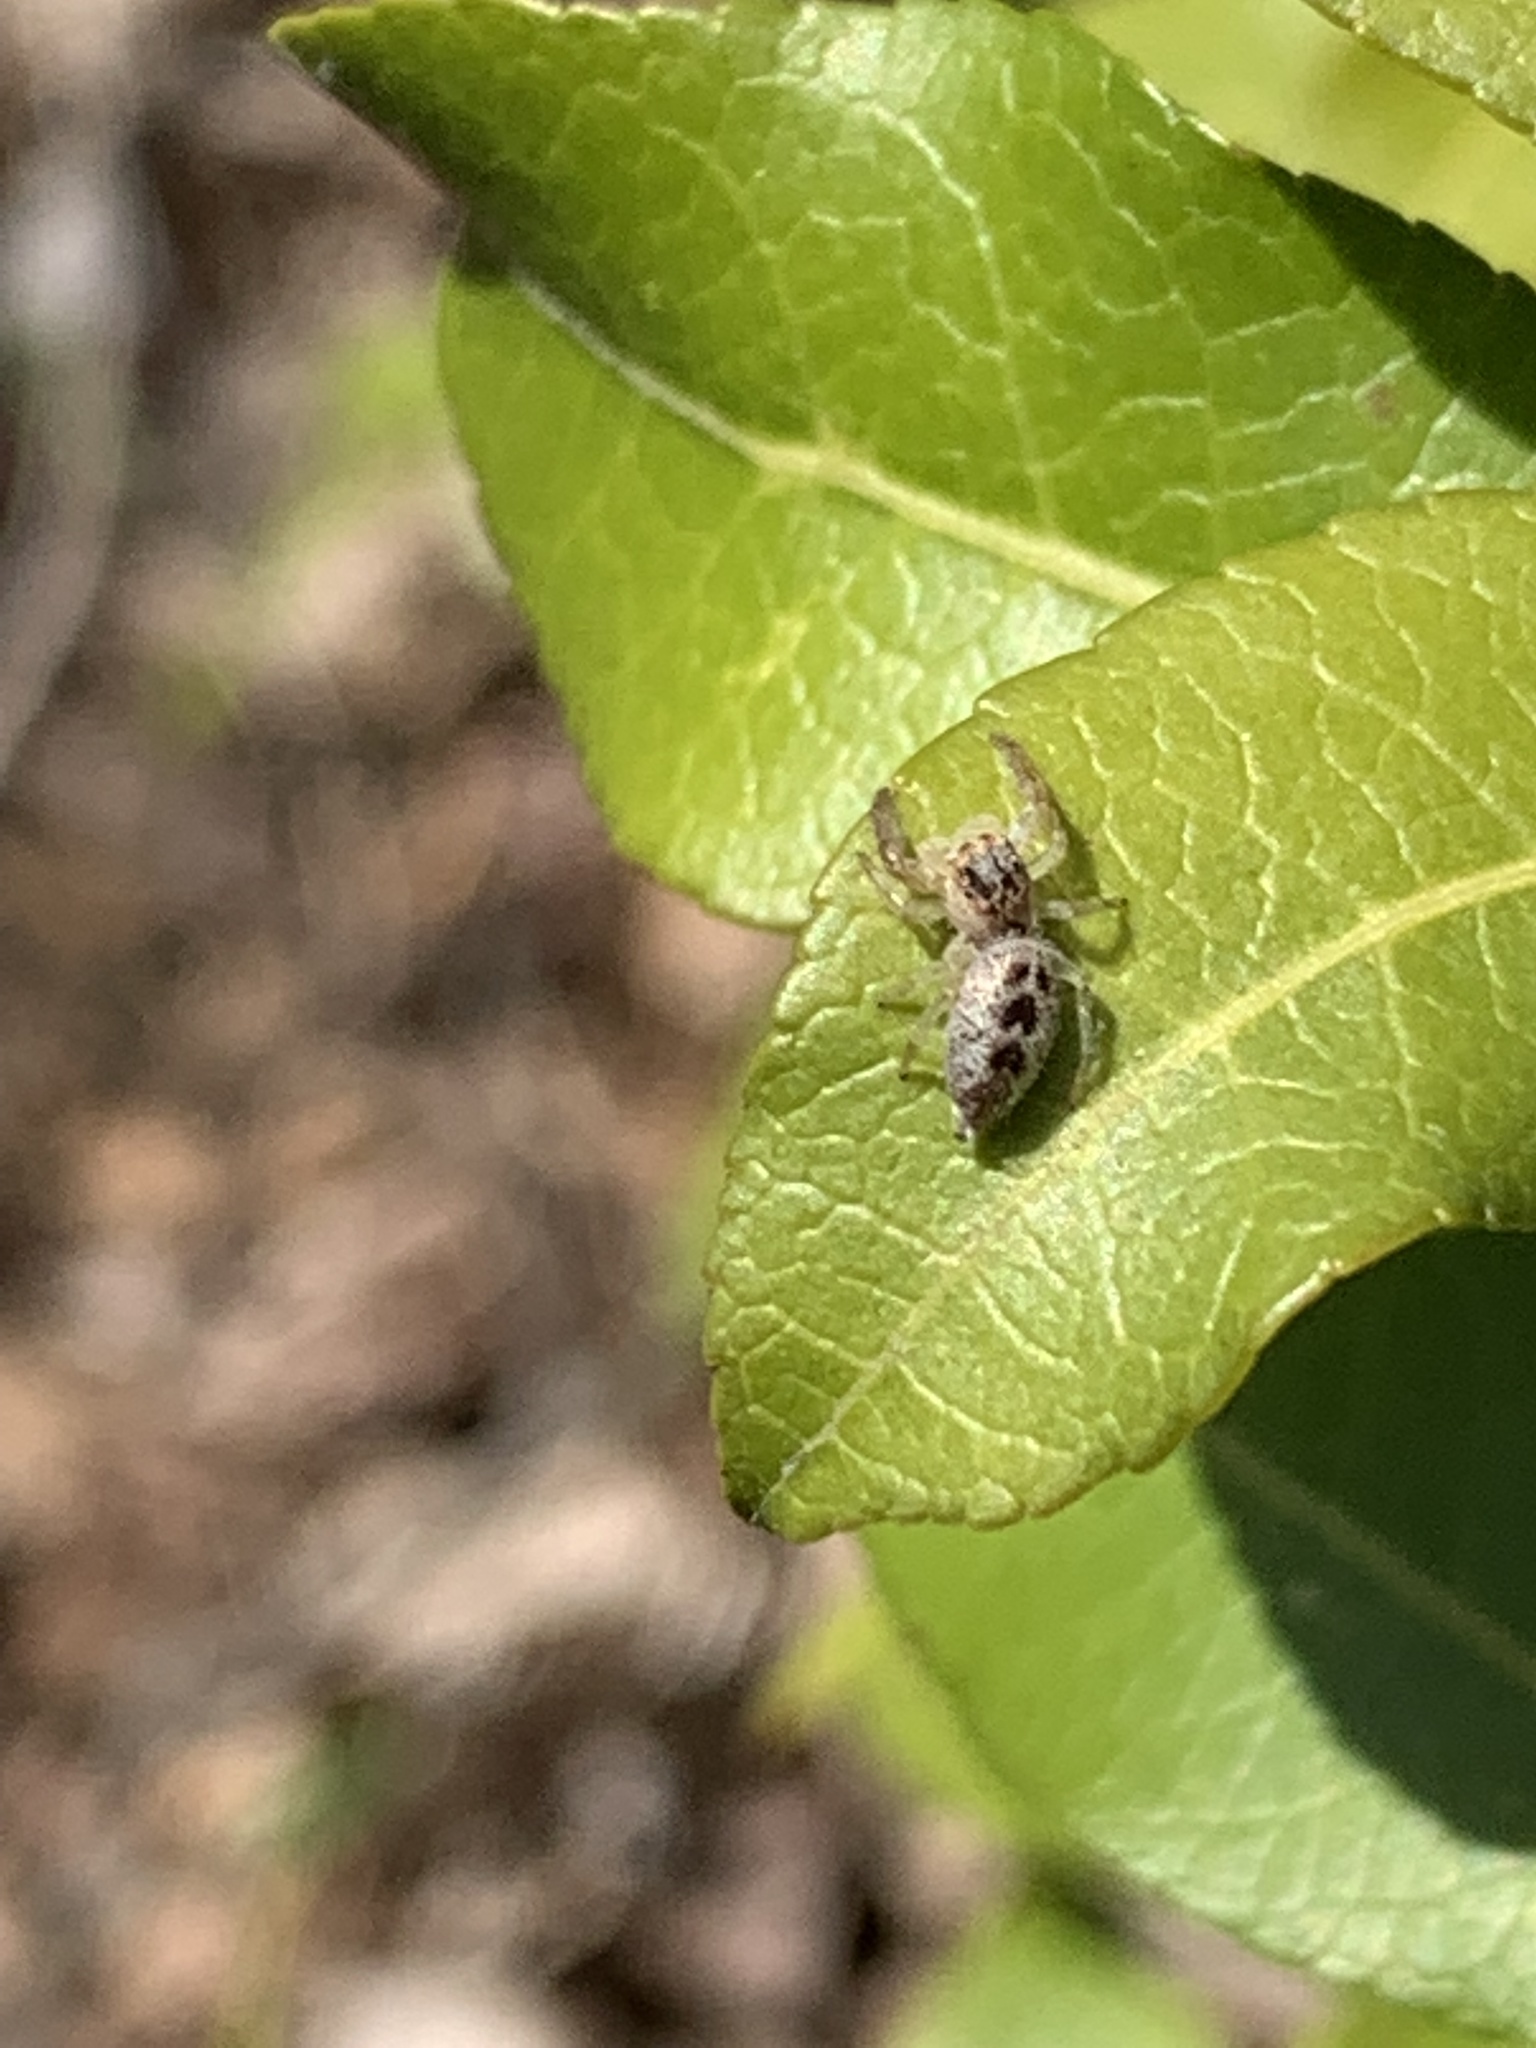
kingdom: Animalia
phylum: Arthropoda
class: Arachnida
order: Araneae
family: Salticidae
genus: Hentzia
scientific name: Hentzia mitrata
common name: White-jawed jumping spider
